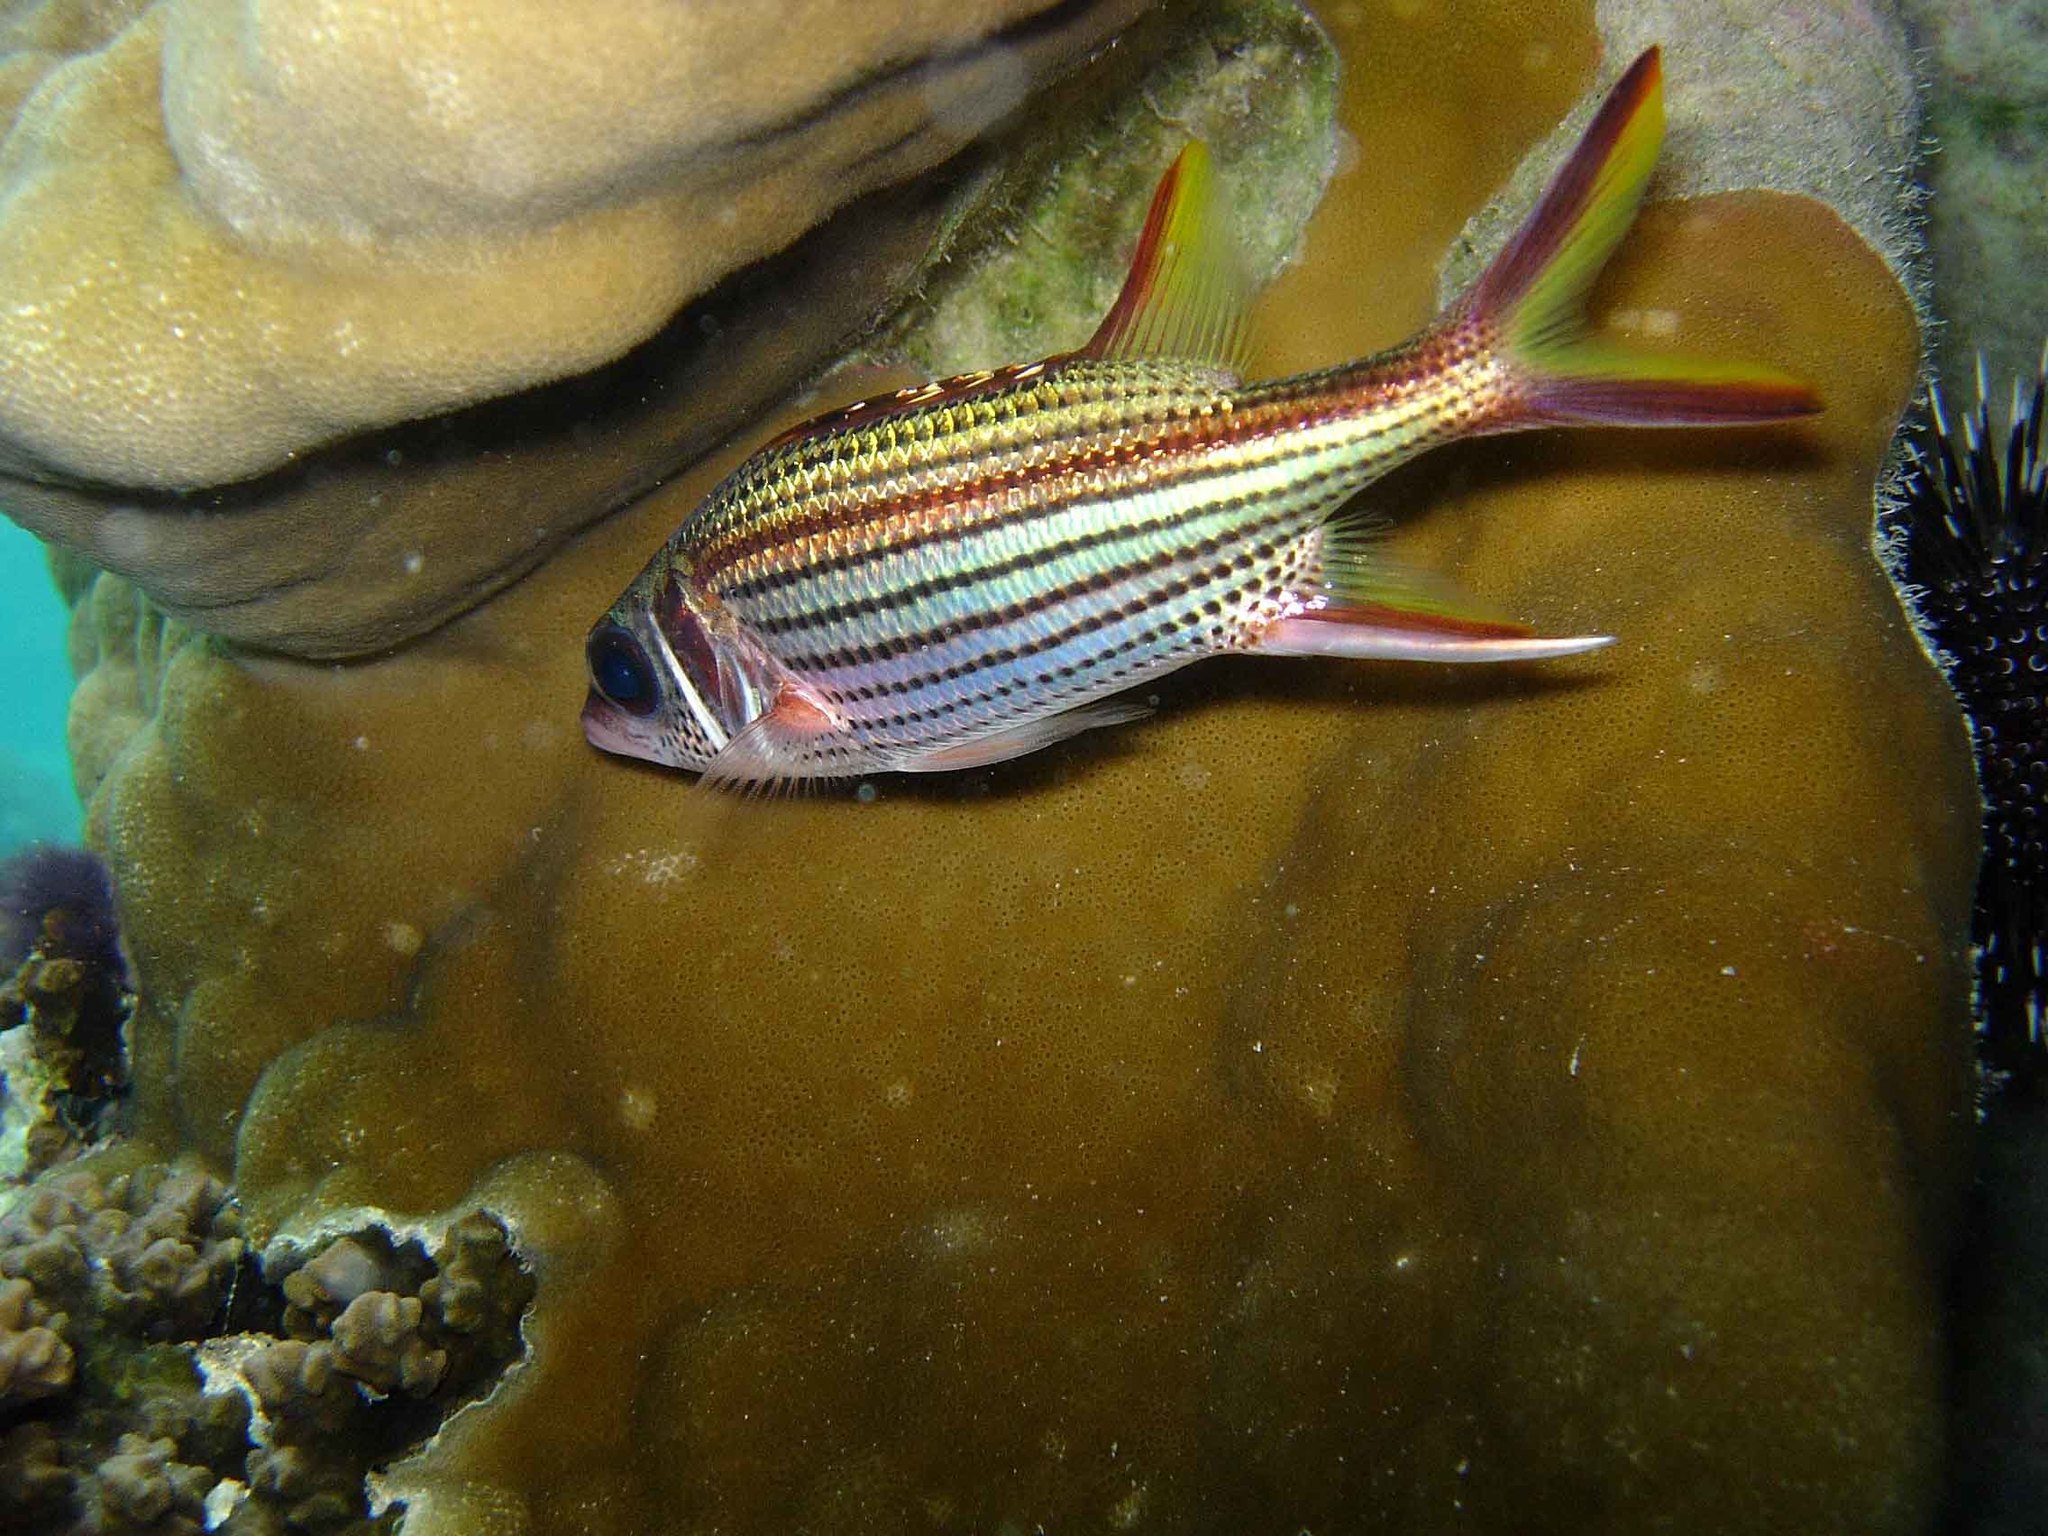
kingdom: Animalia
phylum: Chordata
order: Beryciformes
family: Holocentridae
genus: Neoniphon
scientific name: Neoniphon sammara
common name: Sammara squirrelfish
